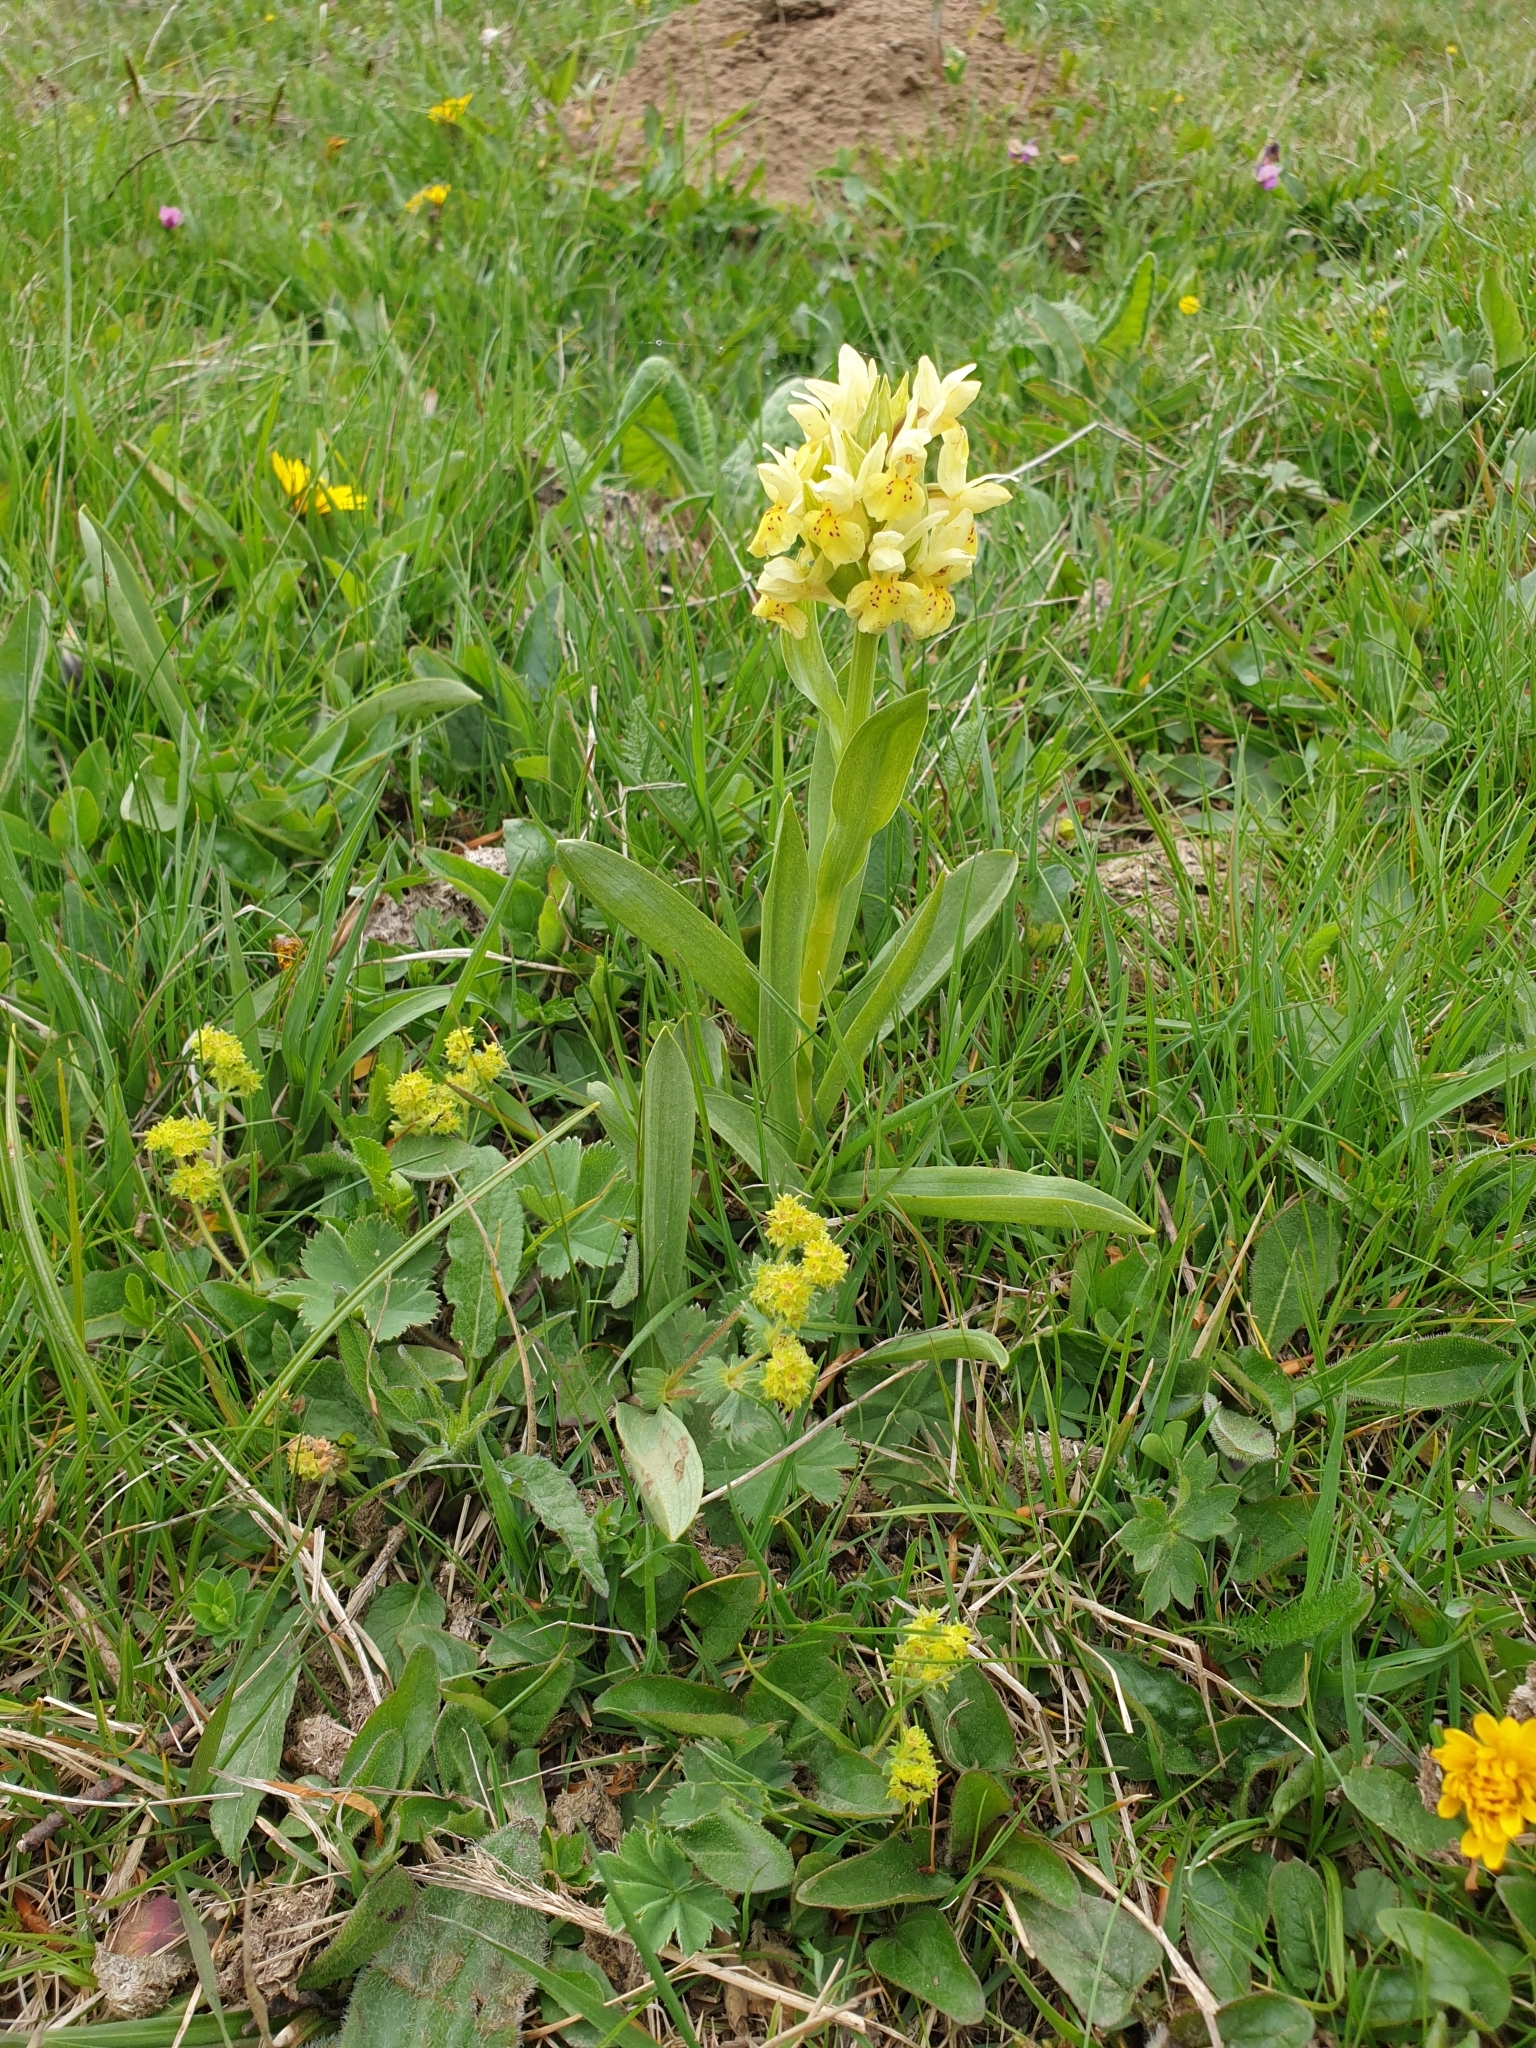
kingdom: Plantae
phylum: Tracheophyta
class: Liliopsida
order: Asparagales
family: Orchidaceae
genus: Dactylorhiza
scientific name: Dactylorhiza sambucina
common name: Elder-flowered orchid
